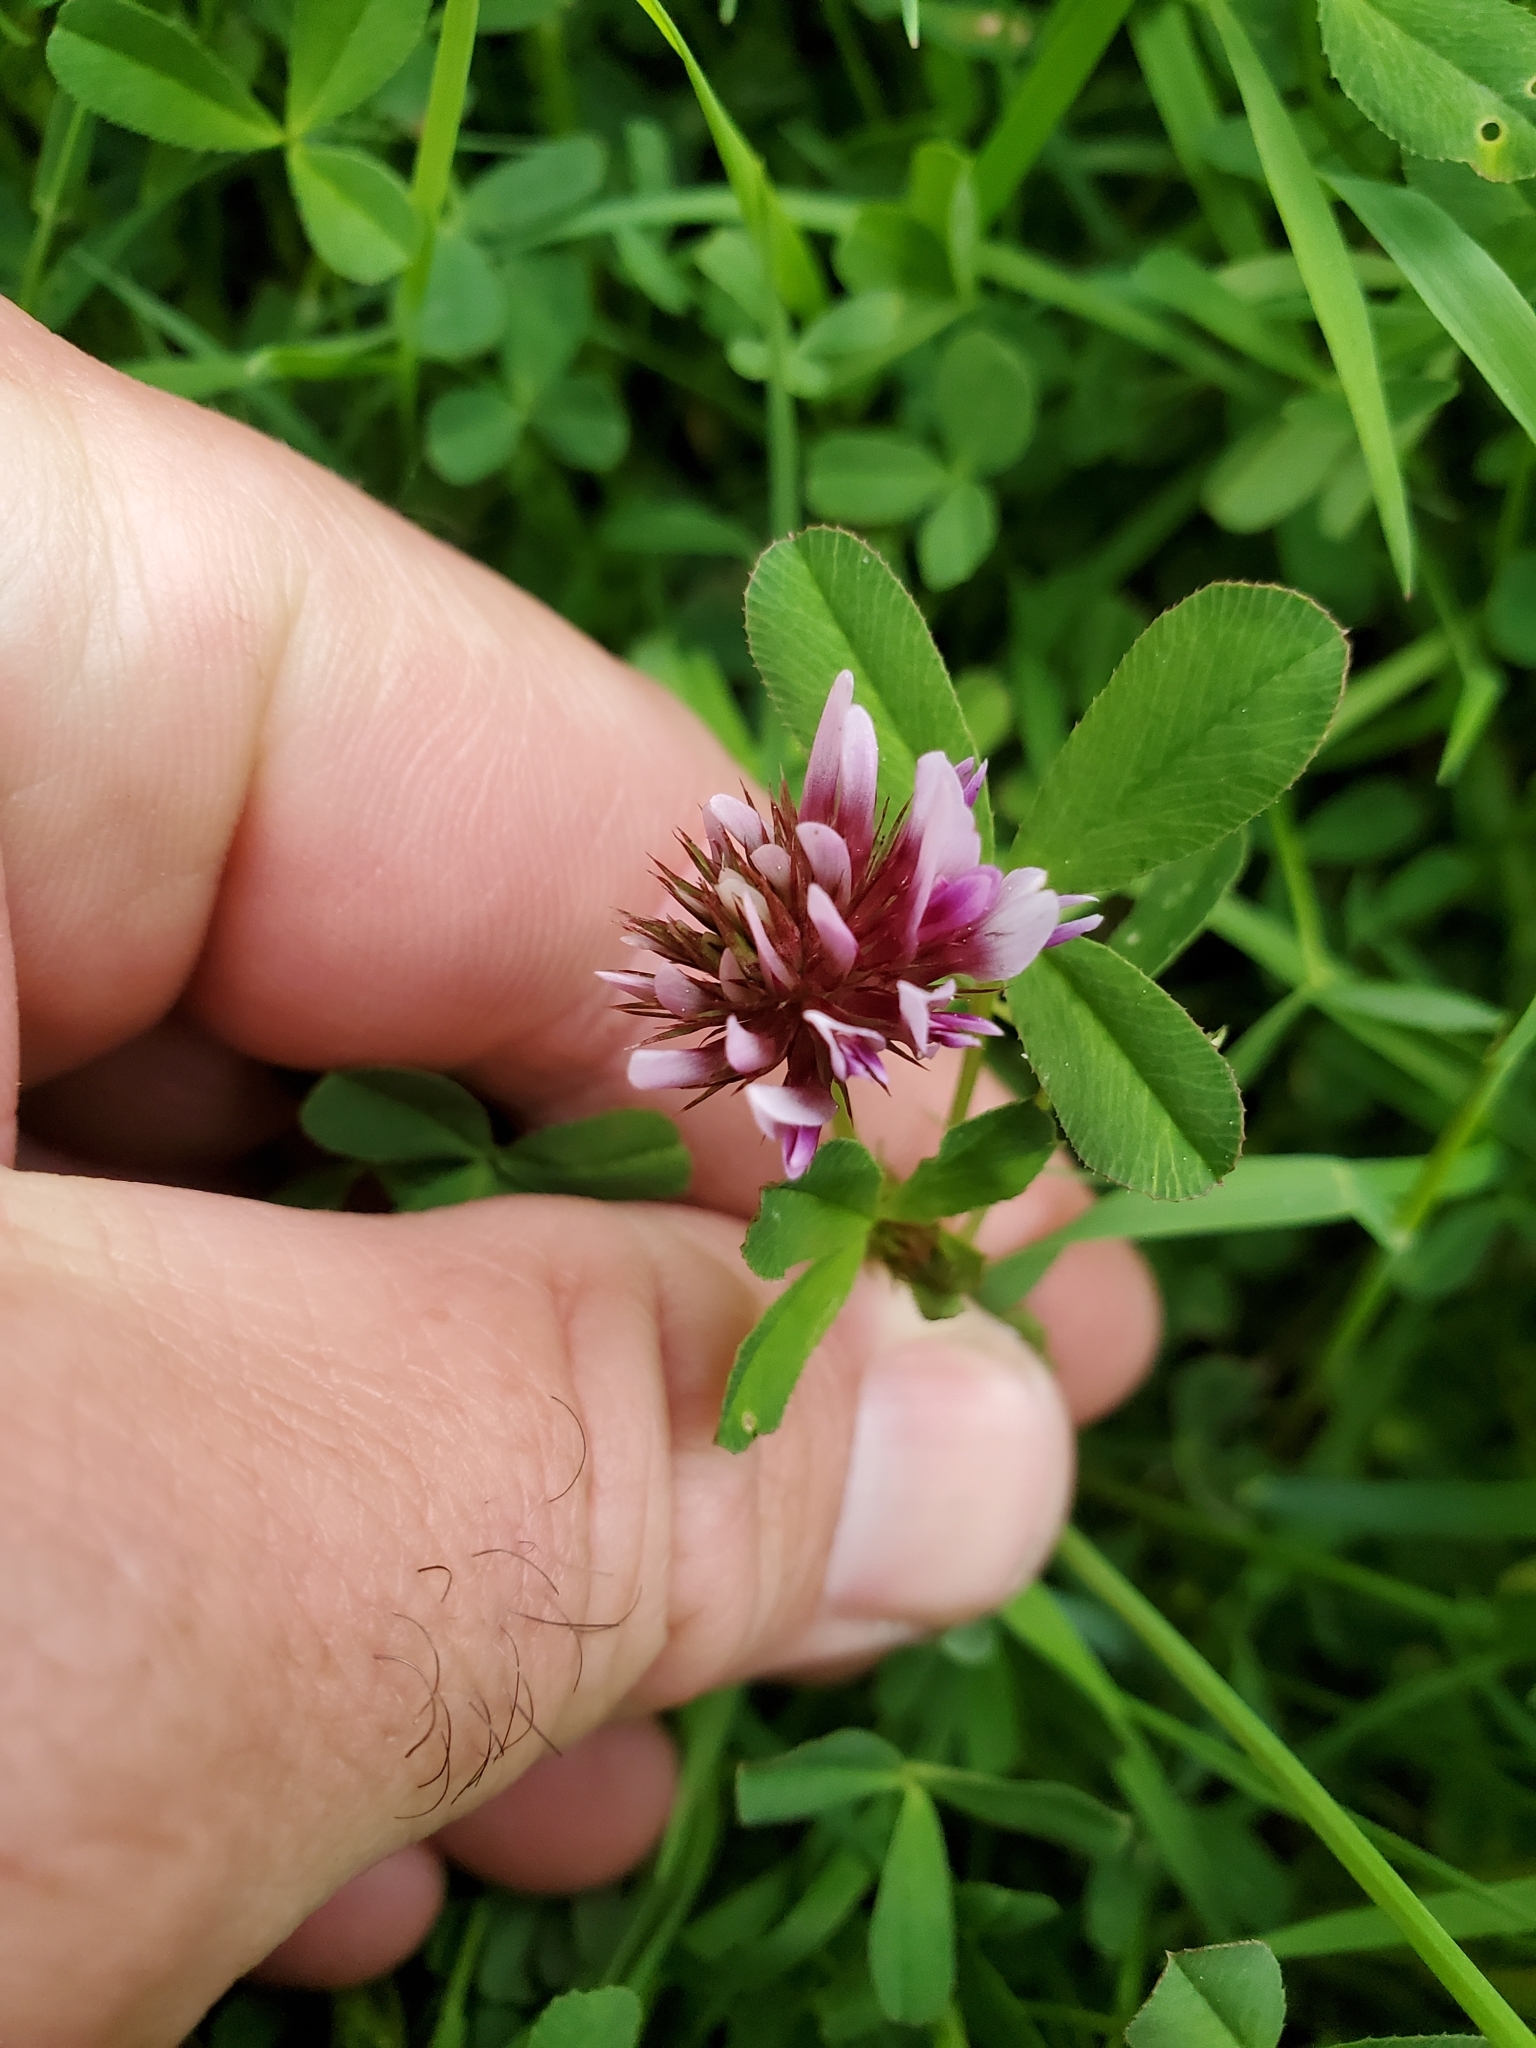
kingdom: Plantae
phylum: Tracheophyta
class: Magnoliopsida
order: Fabales
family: Fabaceae
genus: Trifolium
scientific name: Trifolium wormskioldii
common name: Springbank clover
